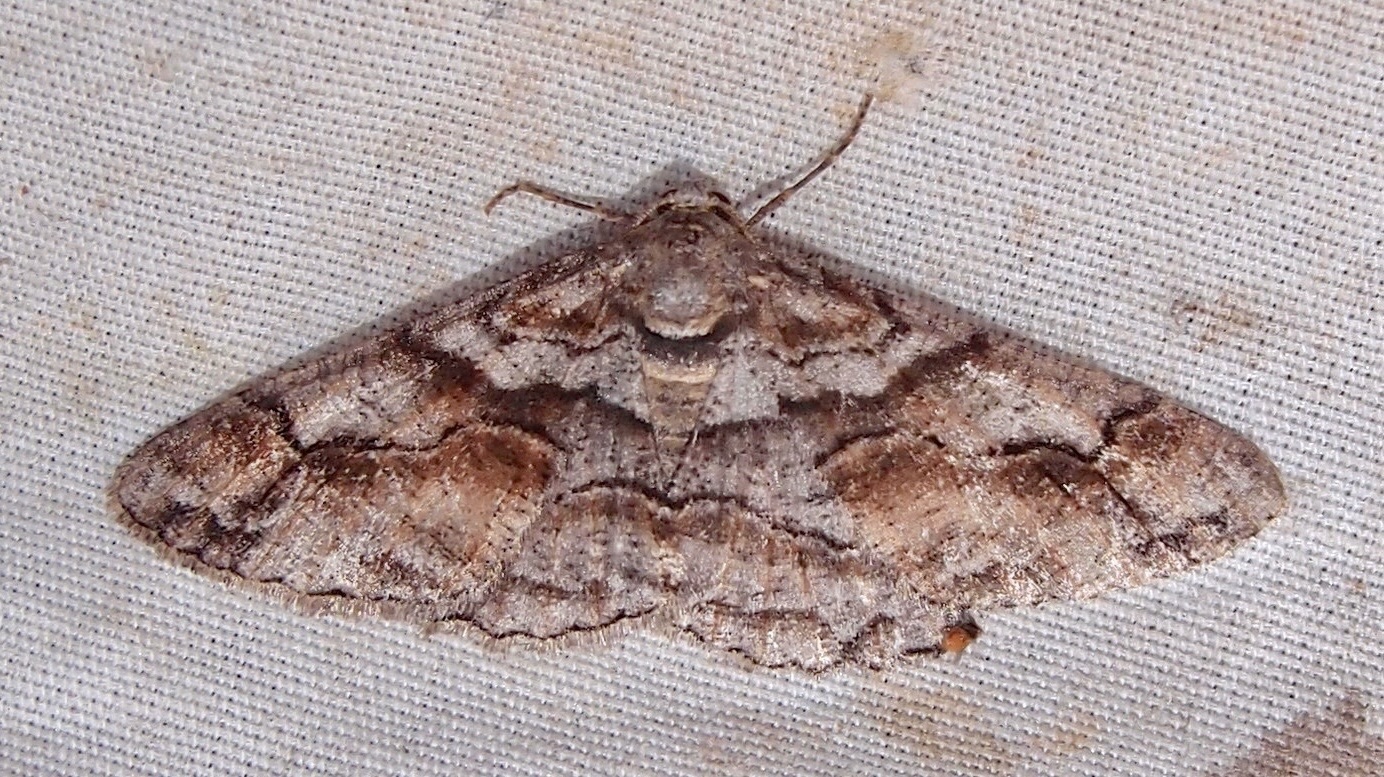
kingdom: Animalia
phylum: Arthropoda
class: Insecta
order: Lepidoptera
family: Geometridae
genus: Mericisca
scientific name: Mericisca gracea
